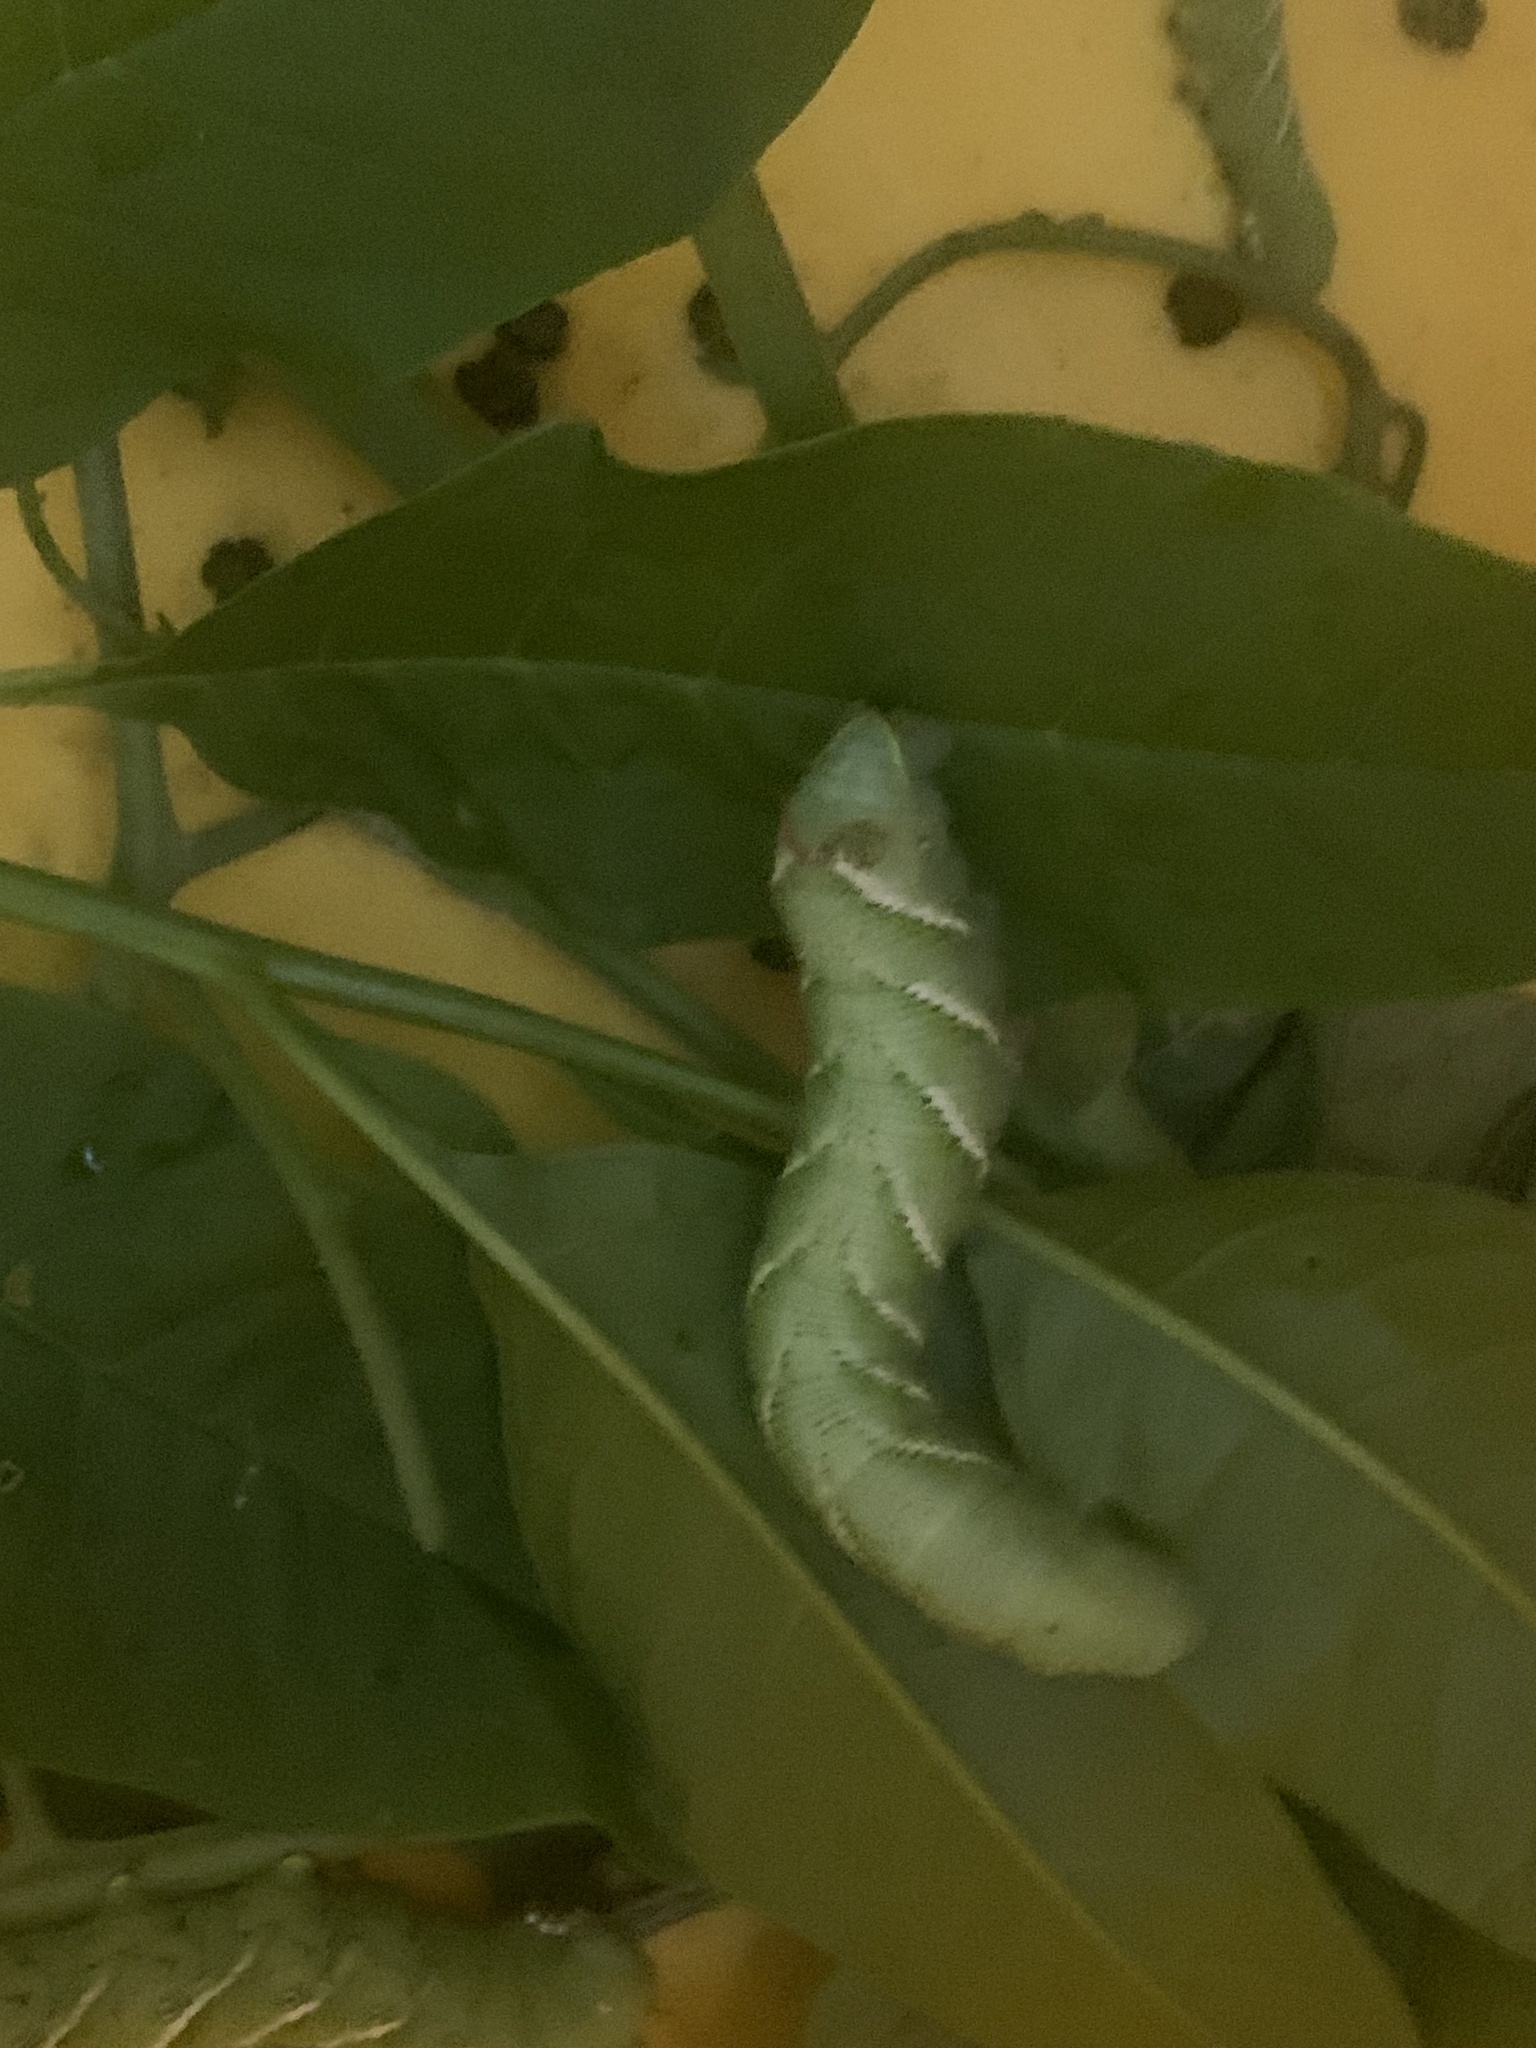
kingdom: Animalia
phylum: Arthropoda
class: Insecta
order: Lepidoptera
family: Sphingidae
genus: Manduca
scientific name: Manduca sexta
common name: Carolina sphinx
